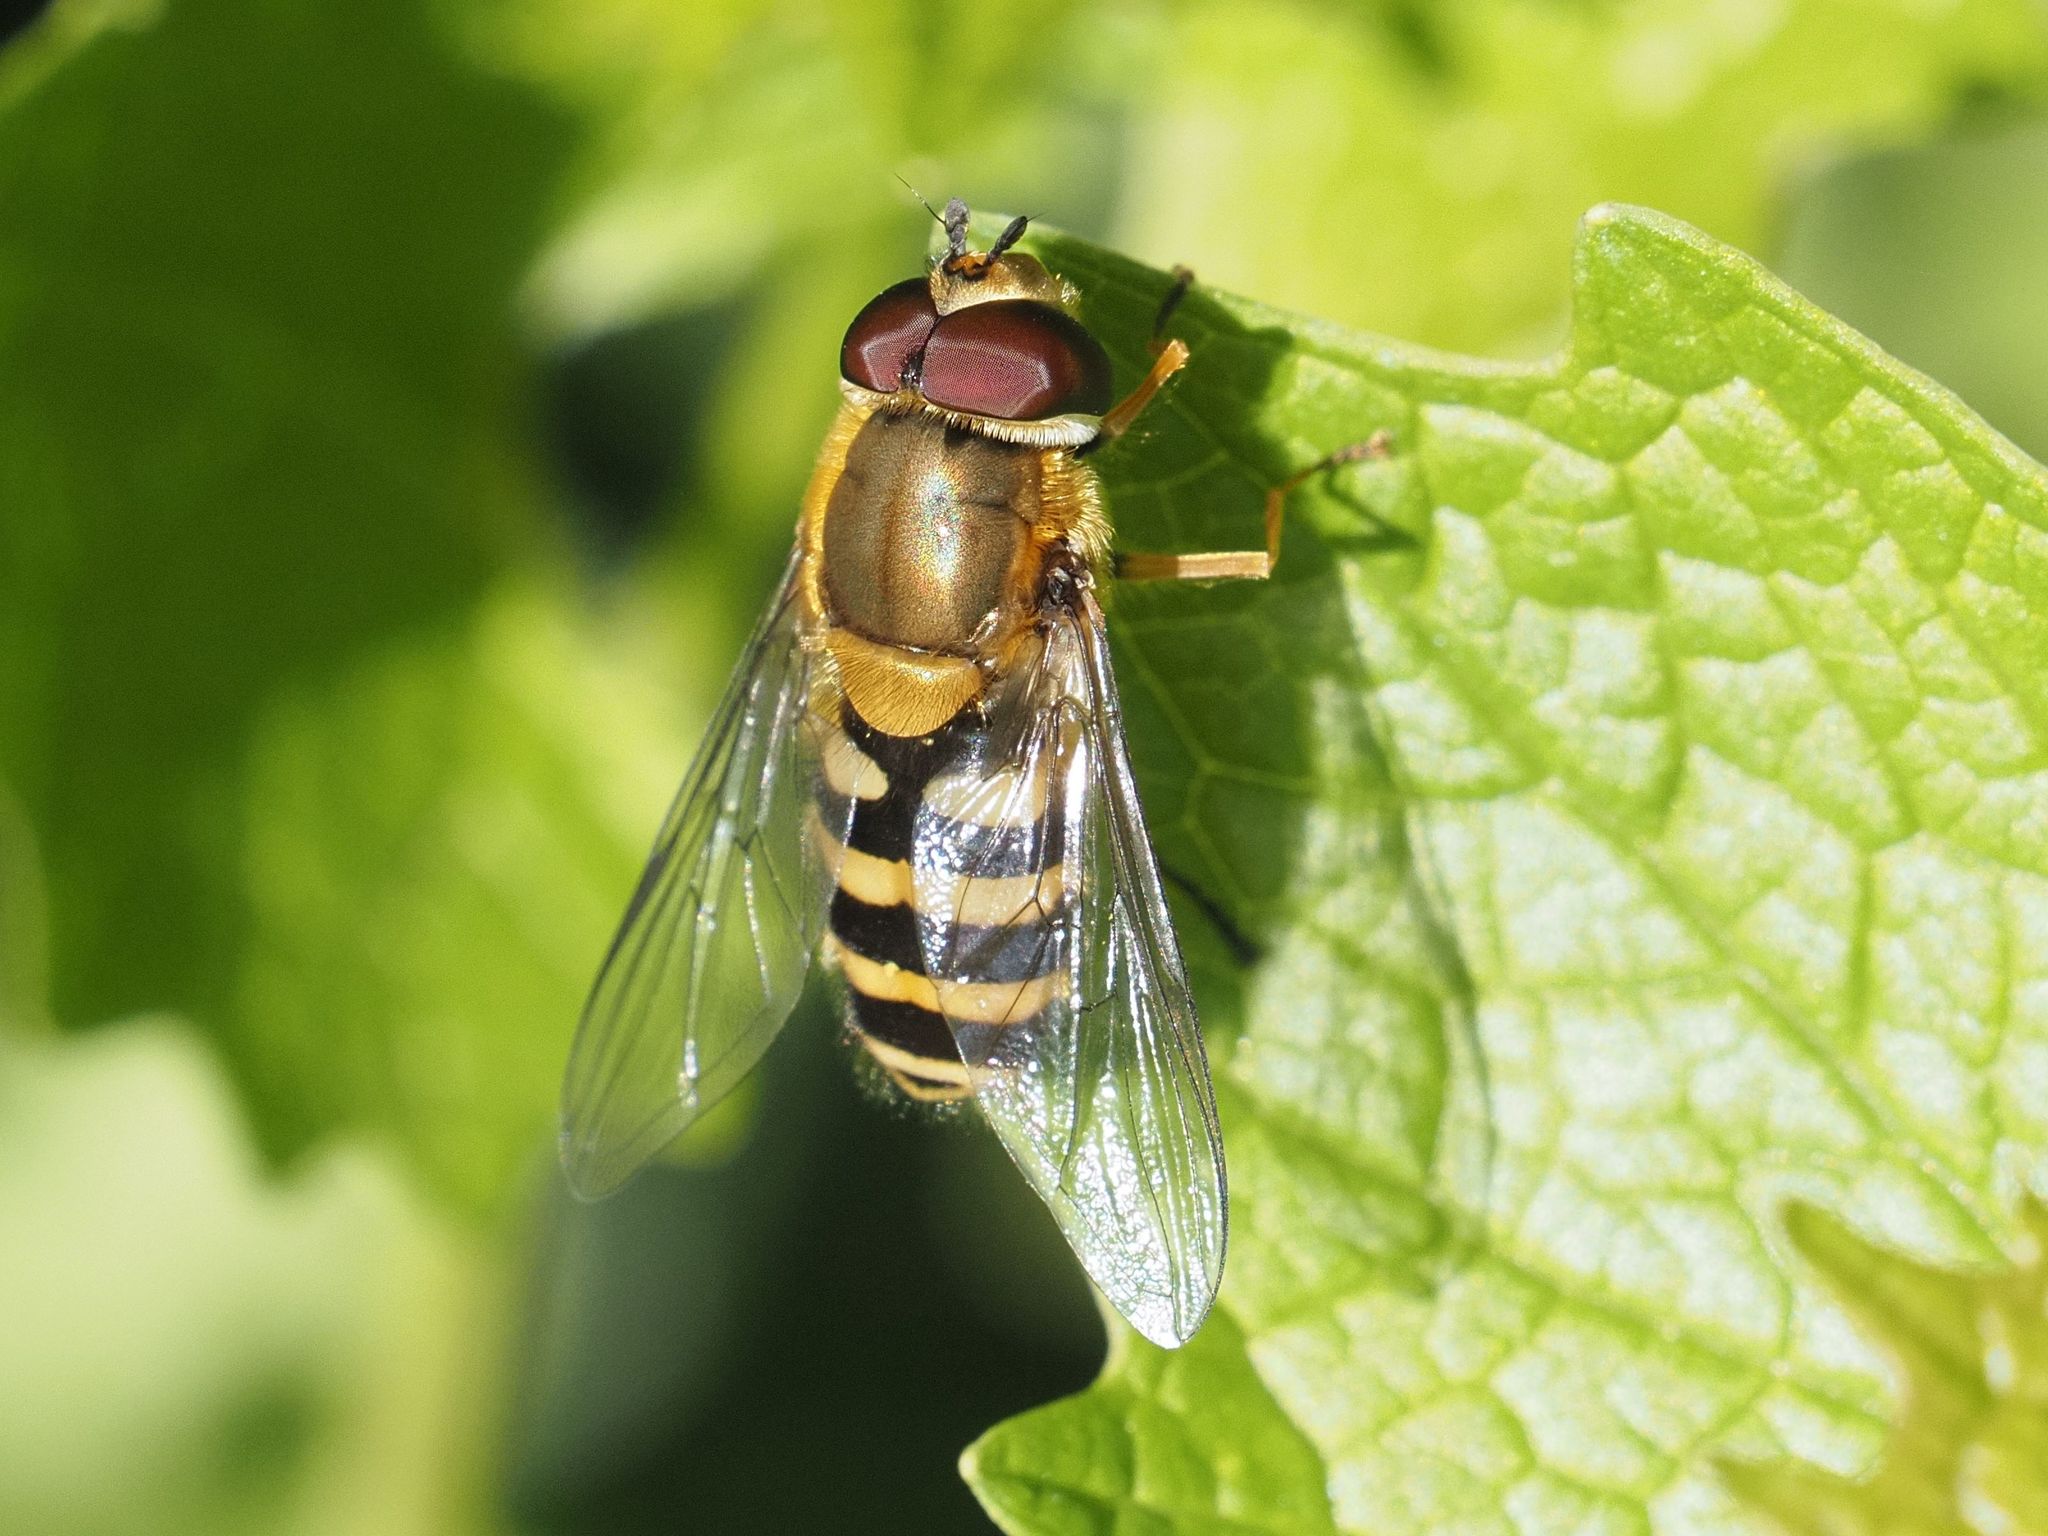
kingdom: Animalia
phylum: Arthropoda
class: Insecta
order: Diptera
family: Syrphidae
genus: Syrphus
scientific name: Syrphus
